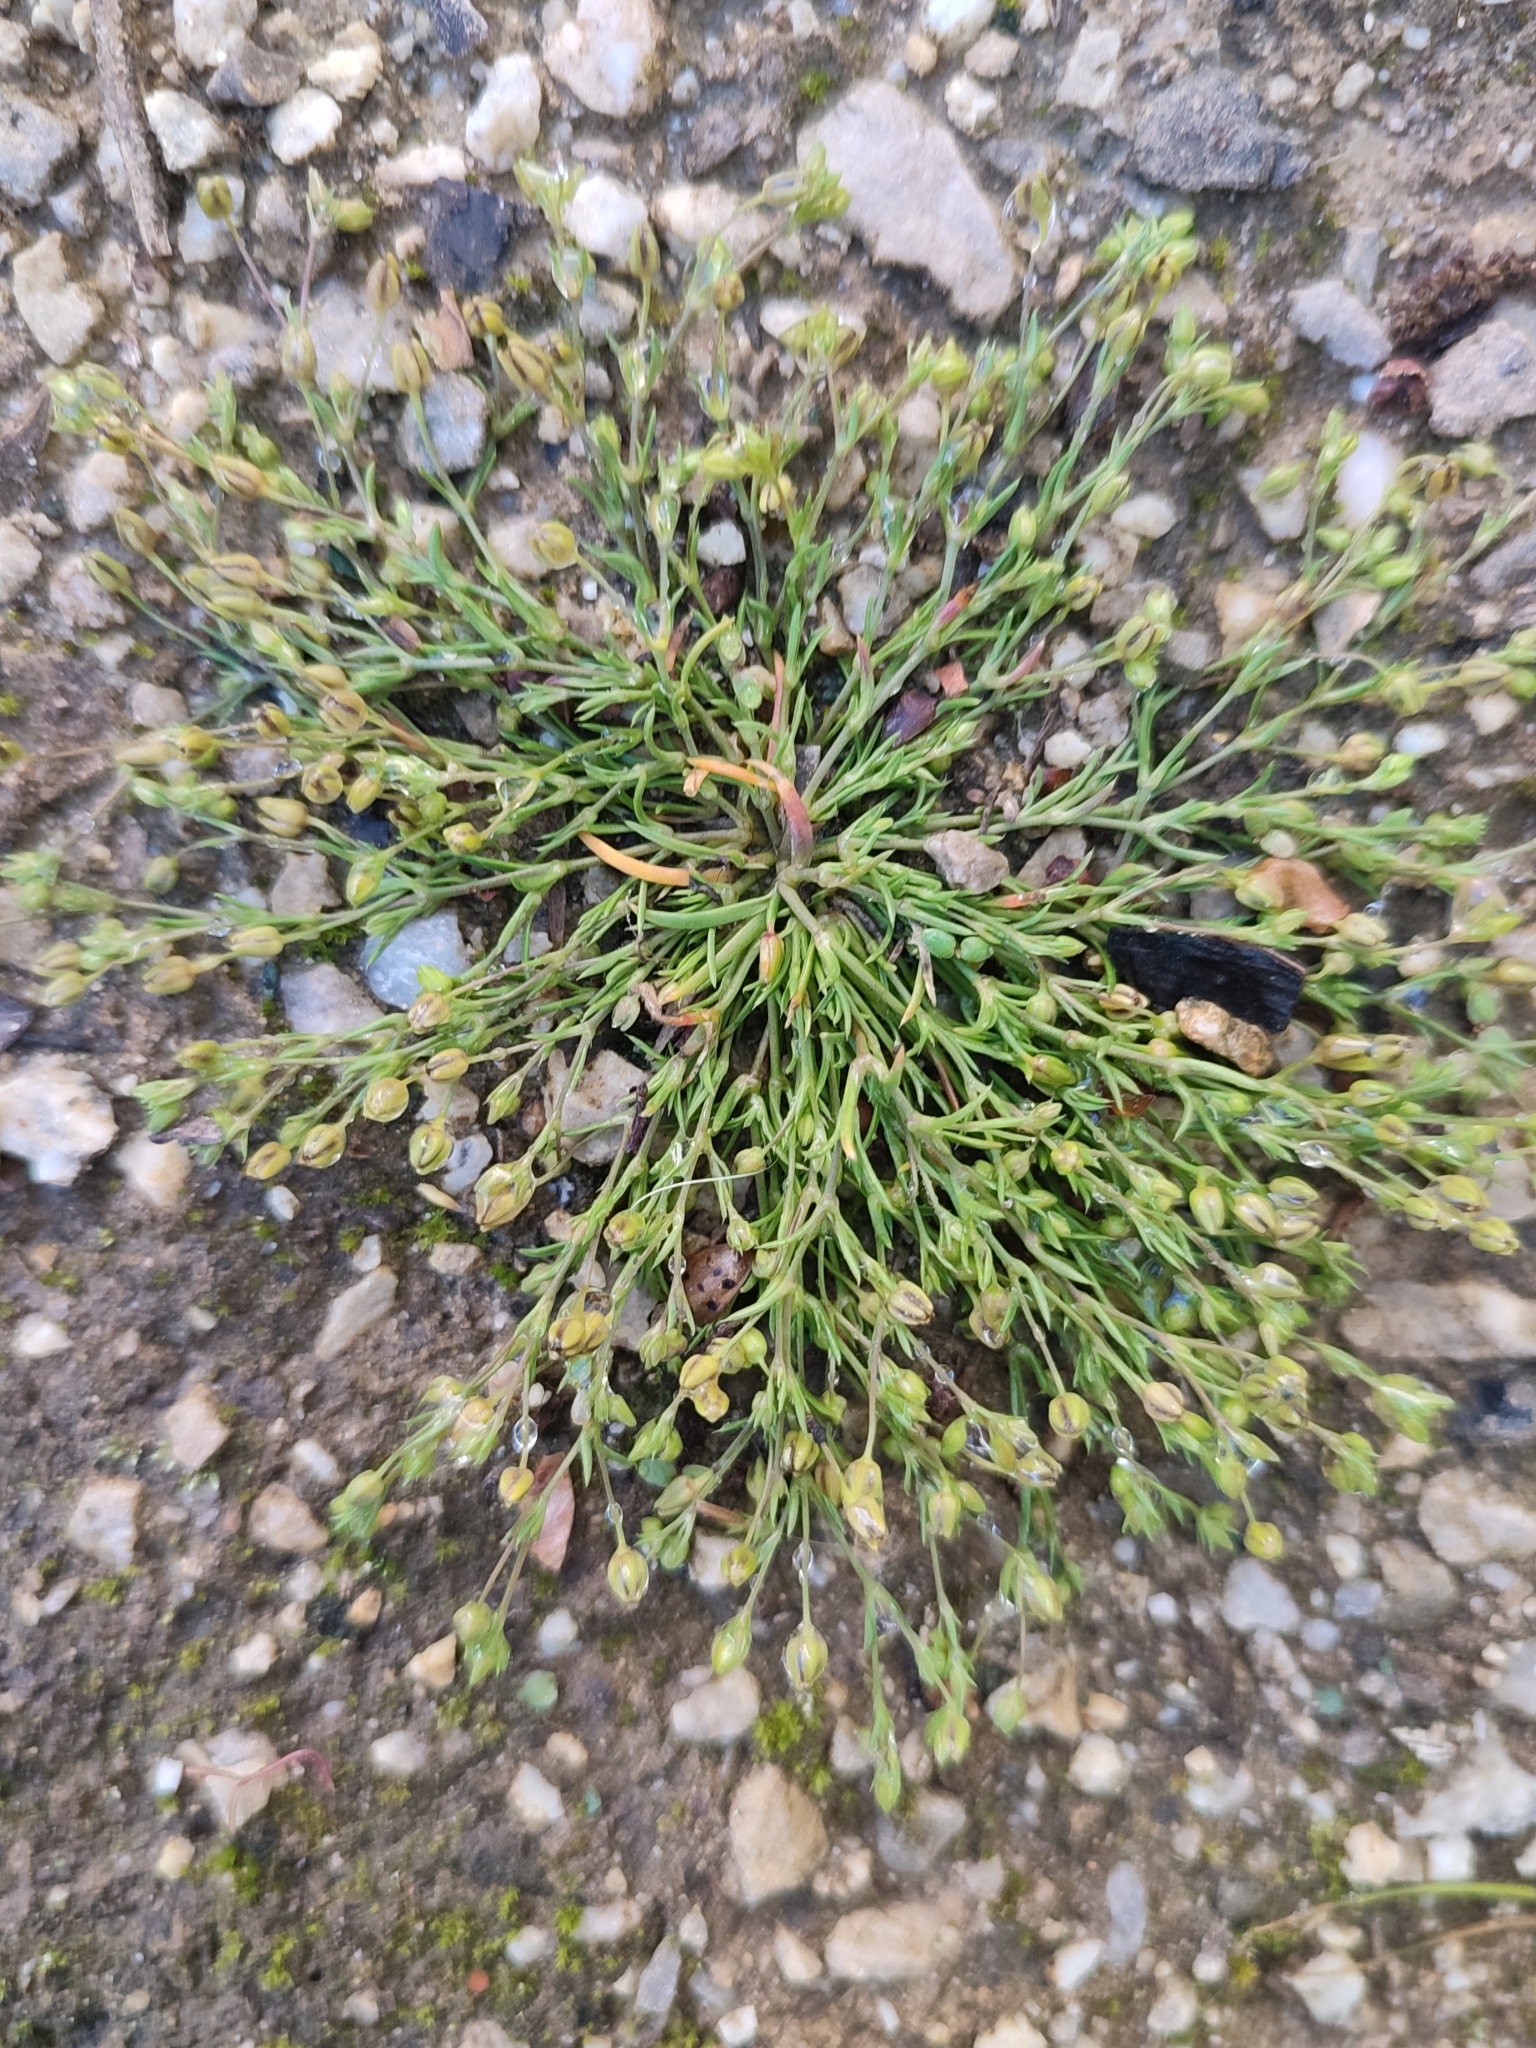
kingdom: Plantae
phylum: Tracheophyta
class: Magnoliopsida
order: Caryophyllales
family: Caryophyllaceae
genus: Sagina
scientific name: Sagina procumbens
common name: Procumbent pearlwort
